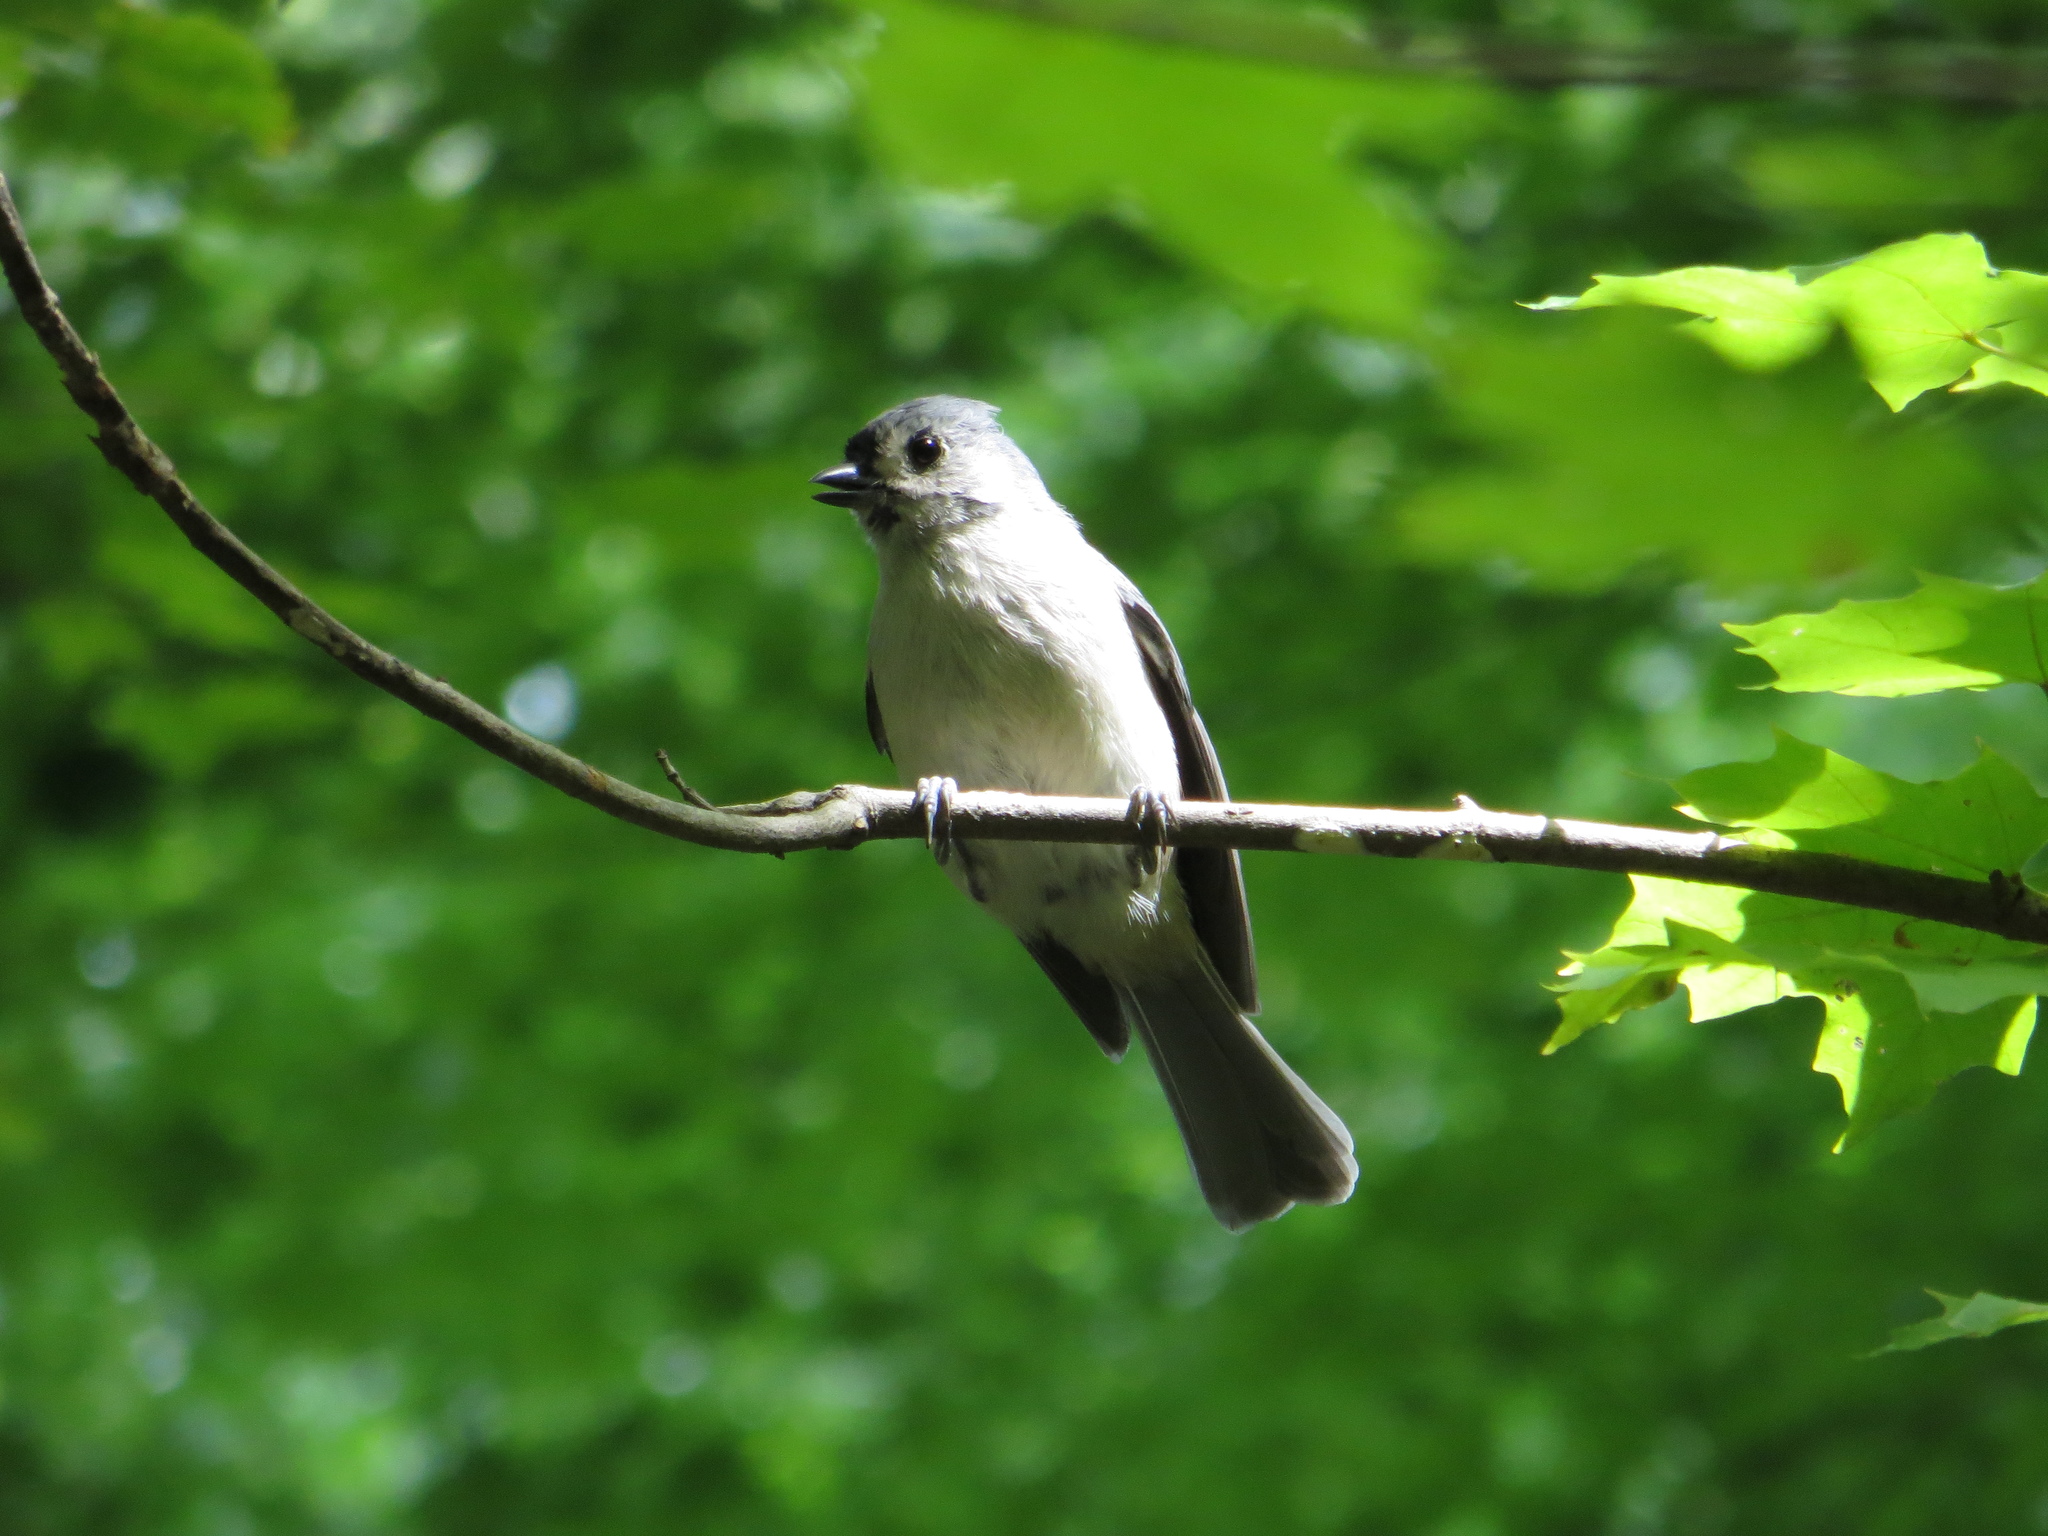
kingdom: Animalia
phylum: Chordata
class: Aves
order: Passeriformes
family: Paridae
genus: Baeolophus
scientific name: Baeolophus bicolor
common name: Tufted titmouse
